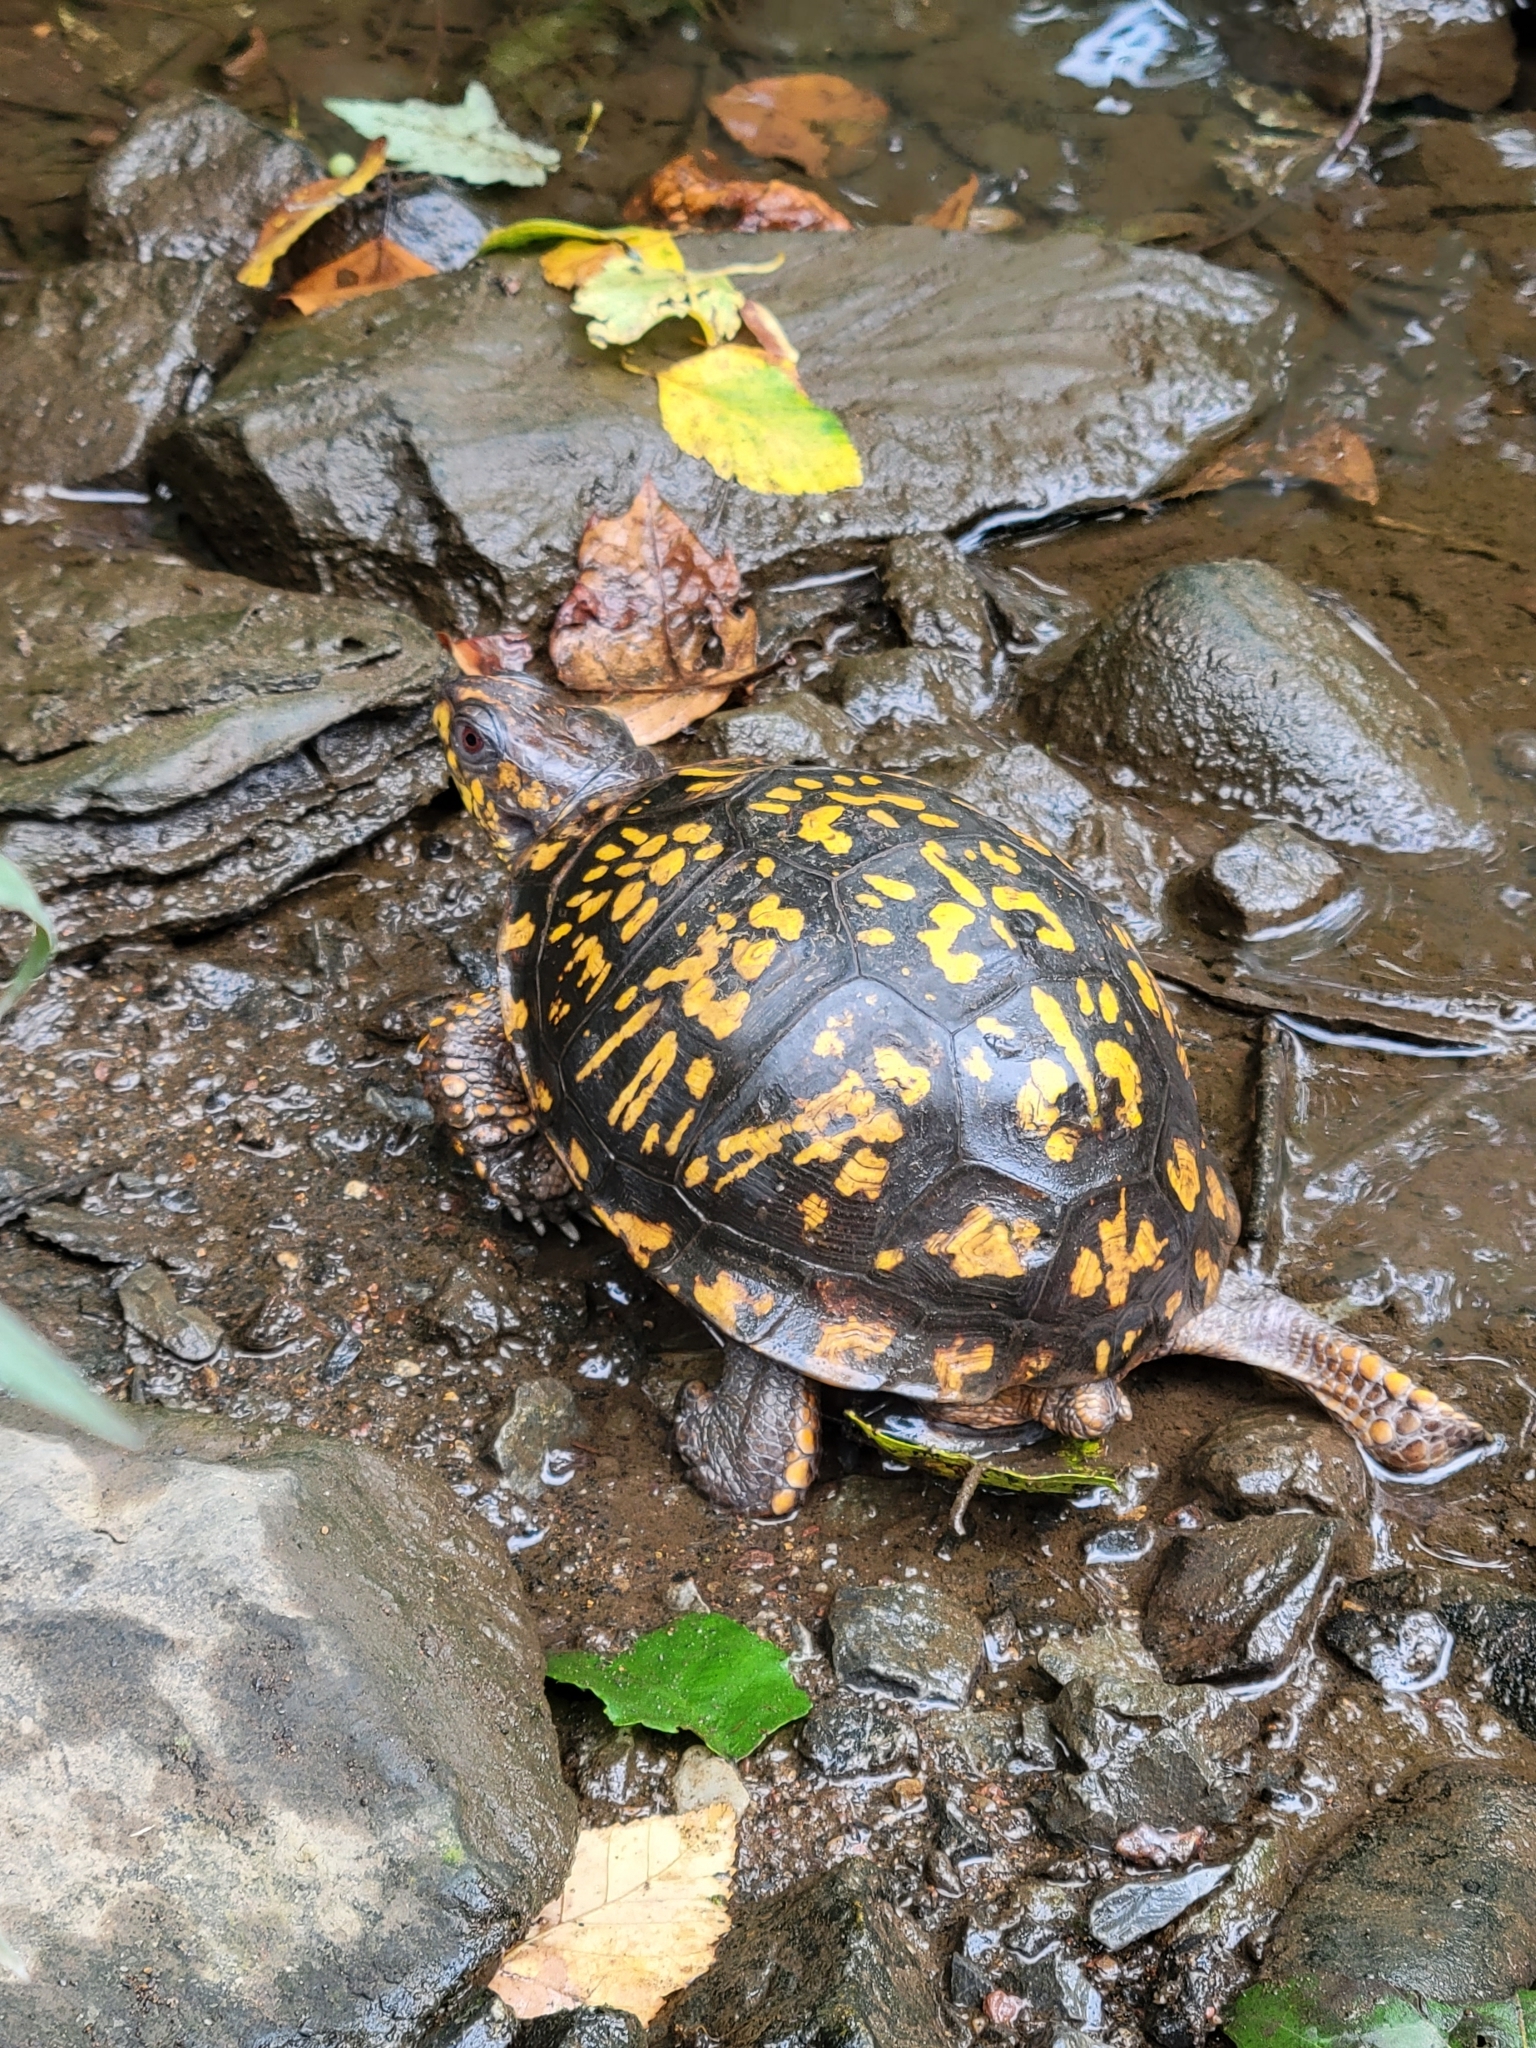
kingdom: Animalia
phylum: Chordata
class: Testudines
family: Emydidae
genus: Terrapene
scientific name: Terrapene carolina
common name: Common box turtle
